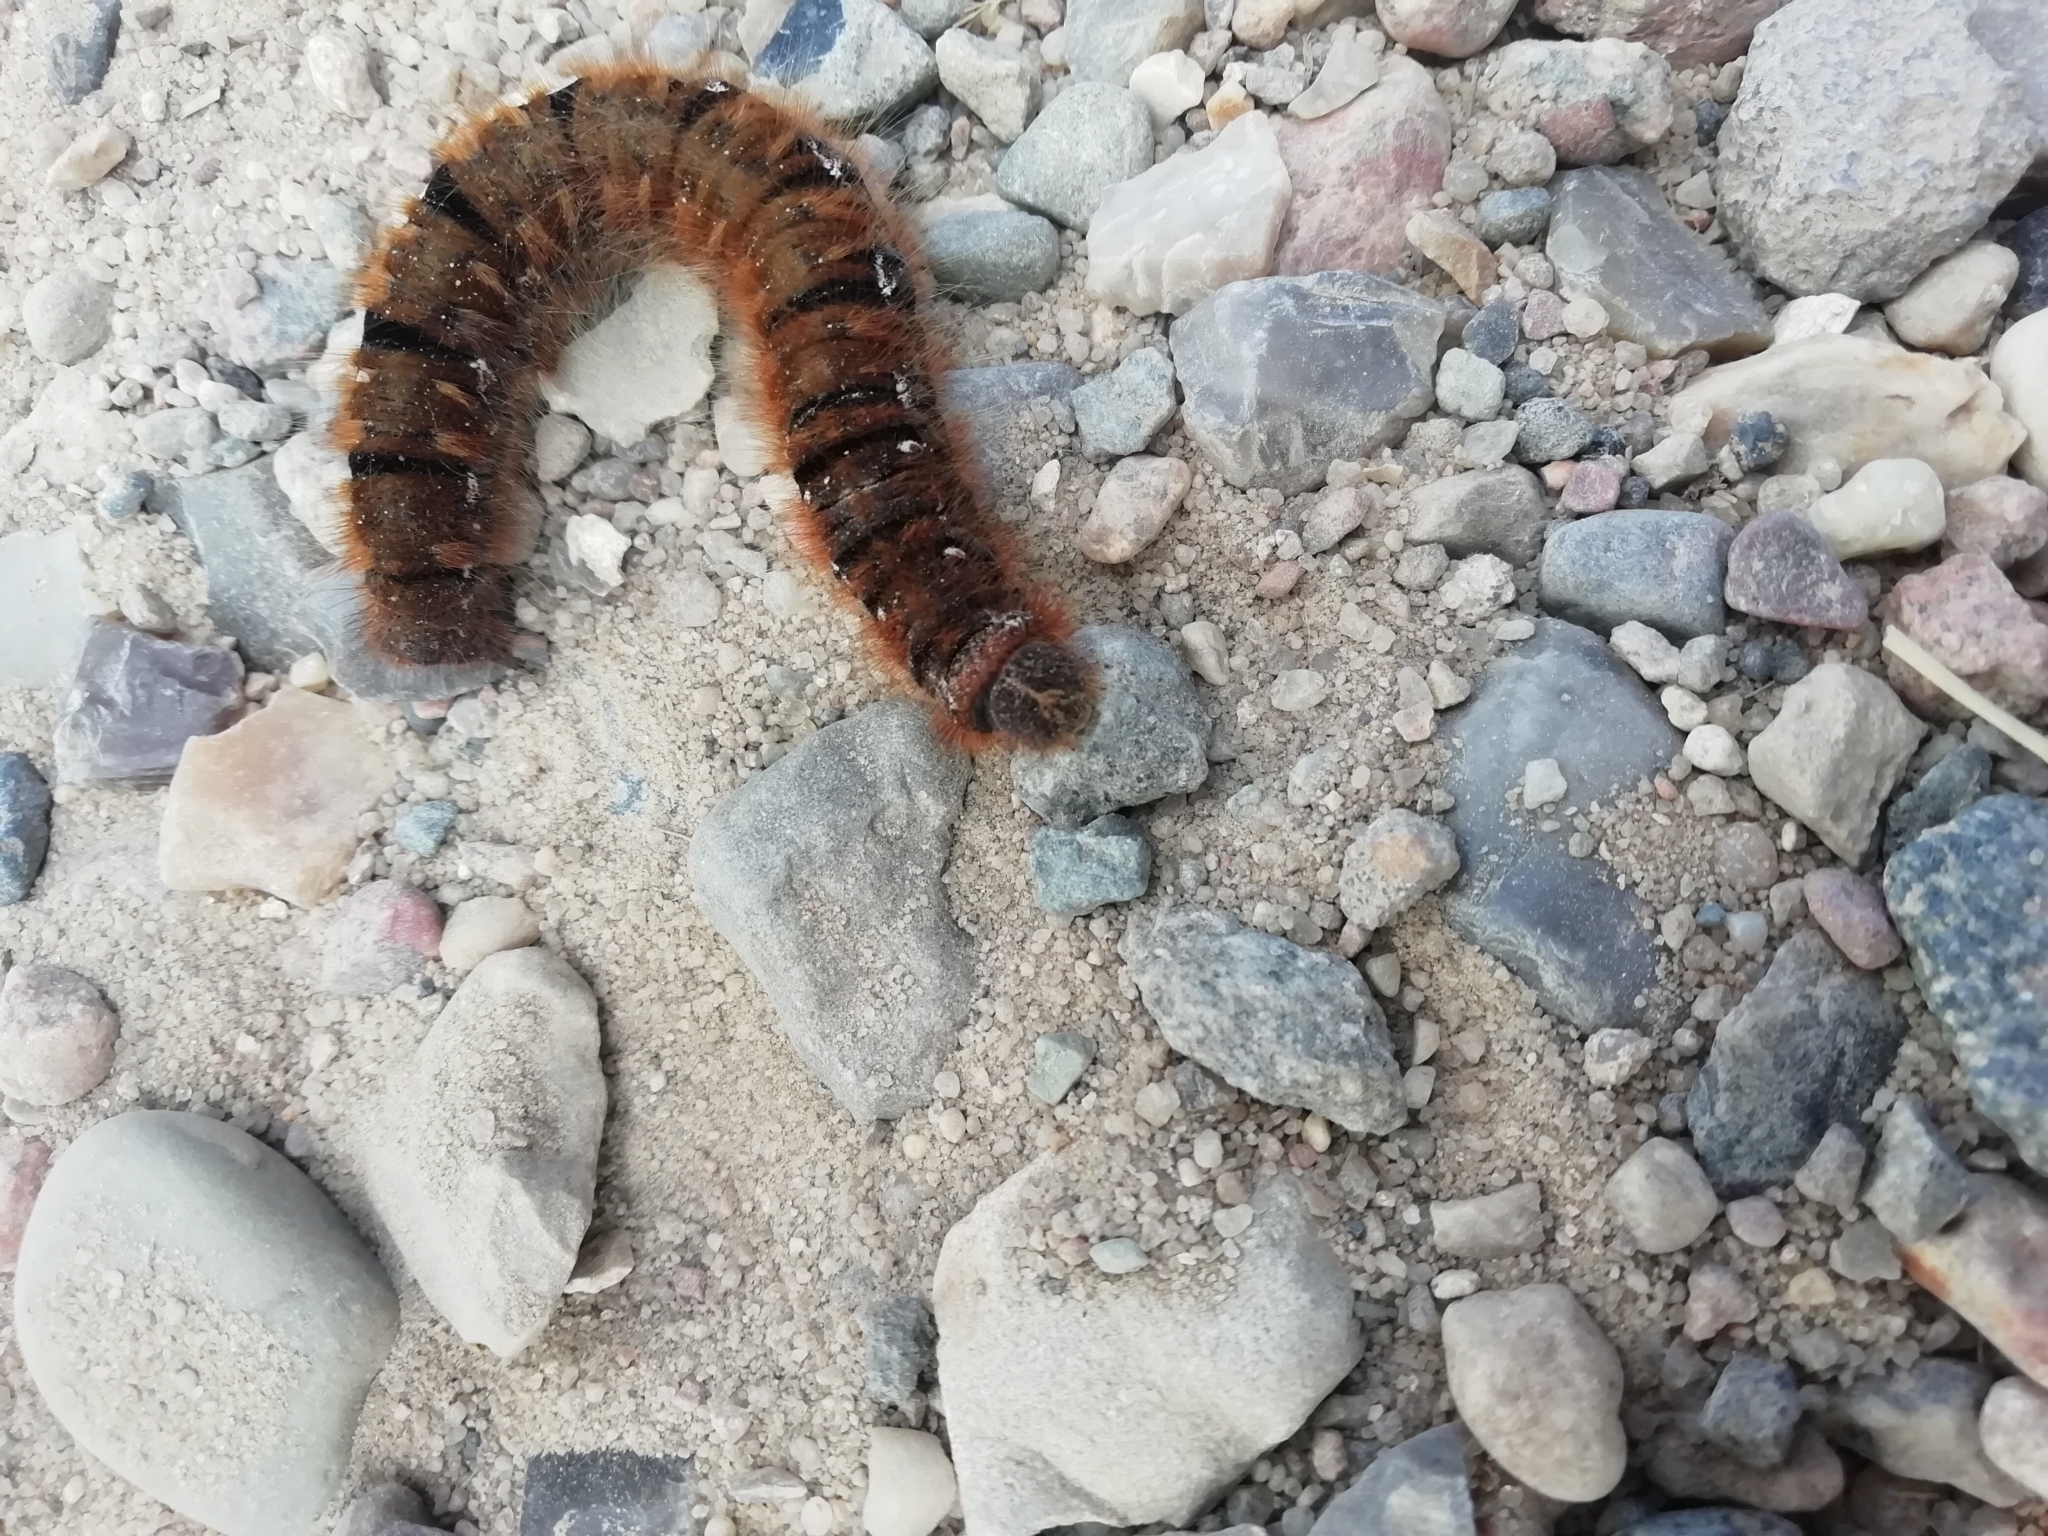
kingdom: Animalia
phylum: Arthropoda
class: Insecta
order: Lepidoptera
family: Lasiocampidae
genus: Lasiocampa
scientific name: Lasiocampa quercus
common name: Oak eggar
